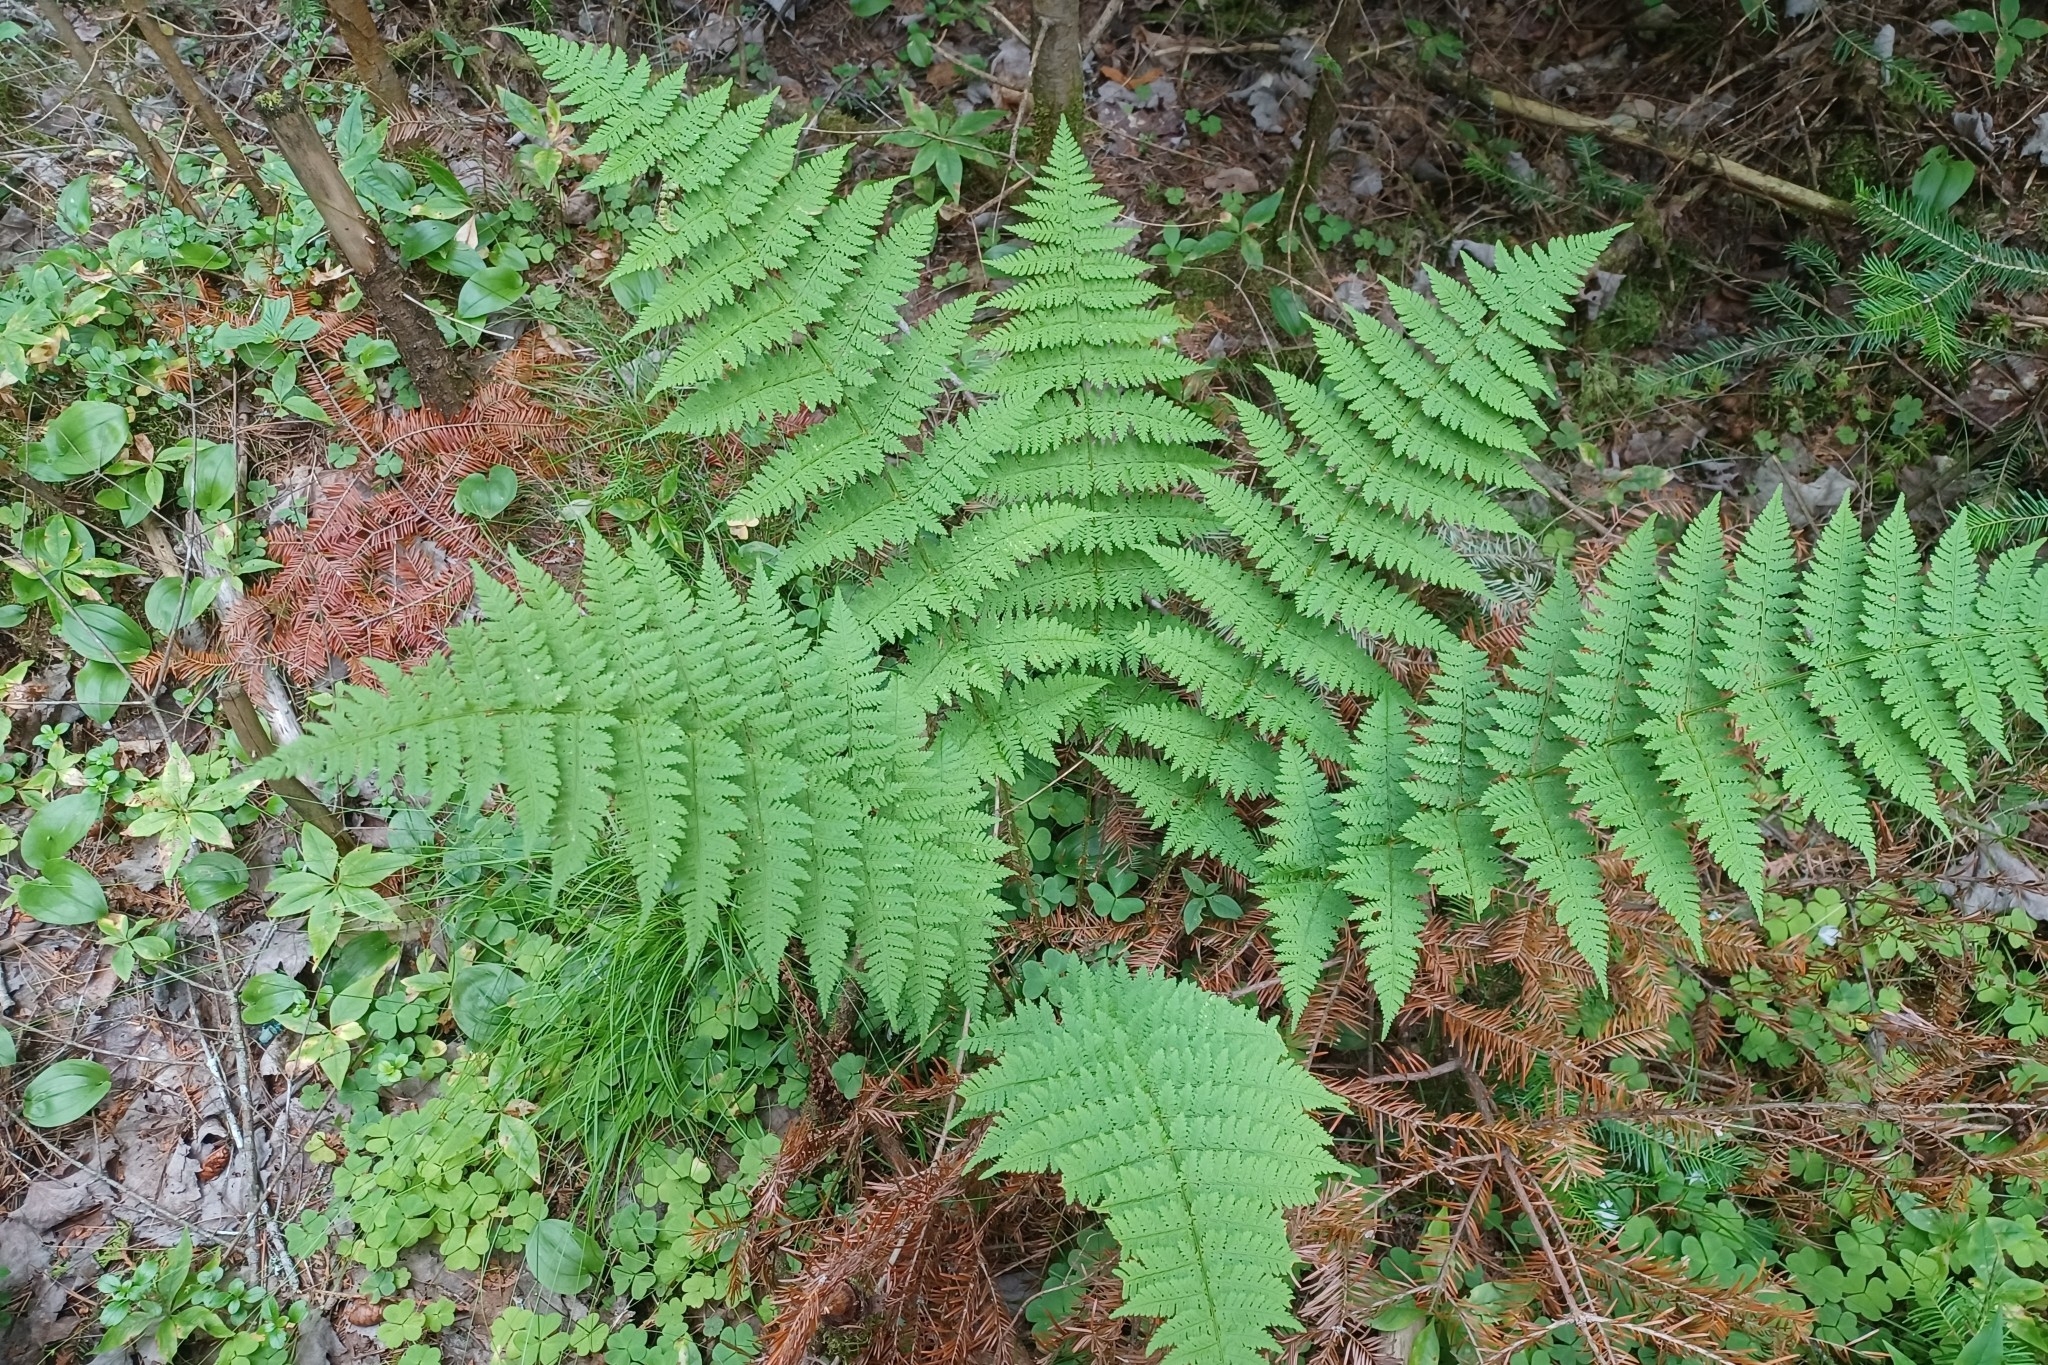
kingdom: Plantae
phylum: Tracheophyta
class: Polypodiopsida
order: Polypodiales
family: Dryopteridaceae
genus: Dryopteris
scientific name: Dryopteris intermedia
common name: Evergreen wood fern
